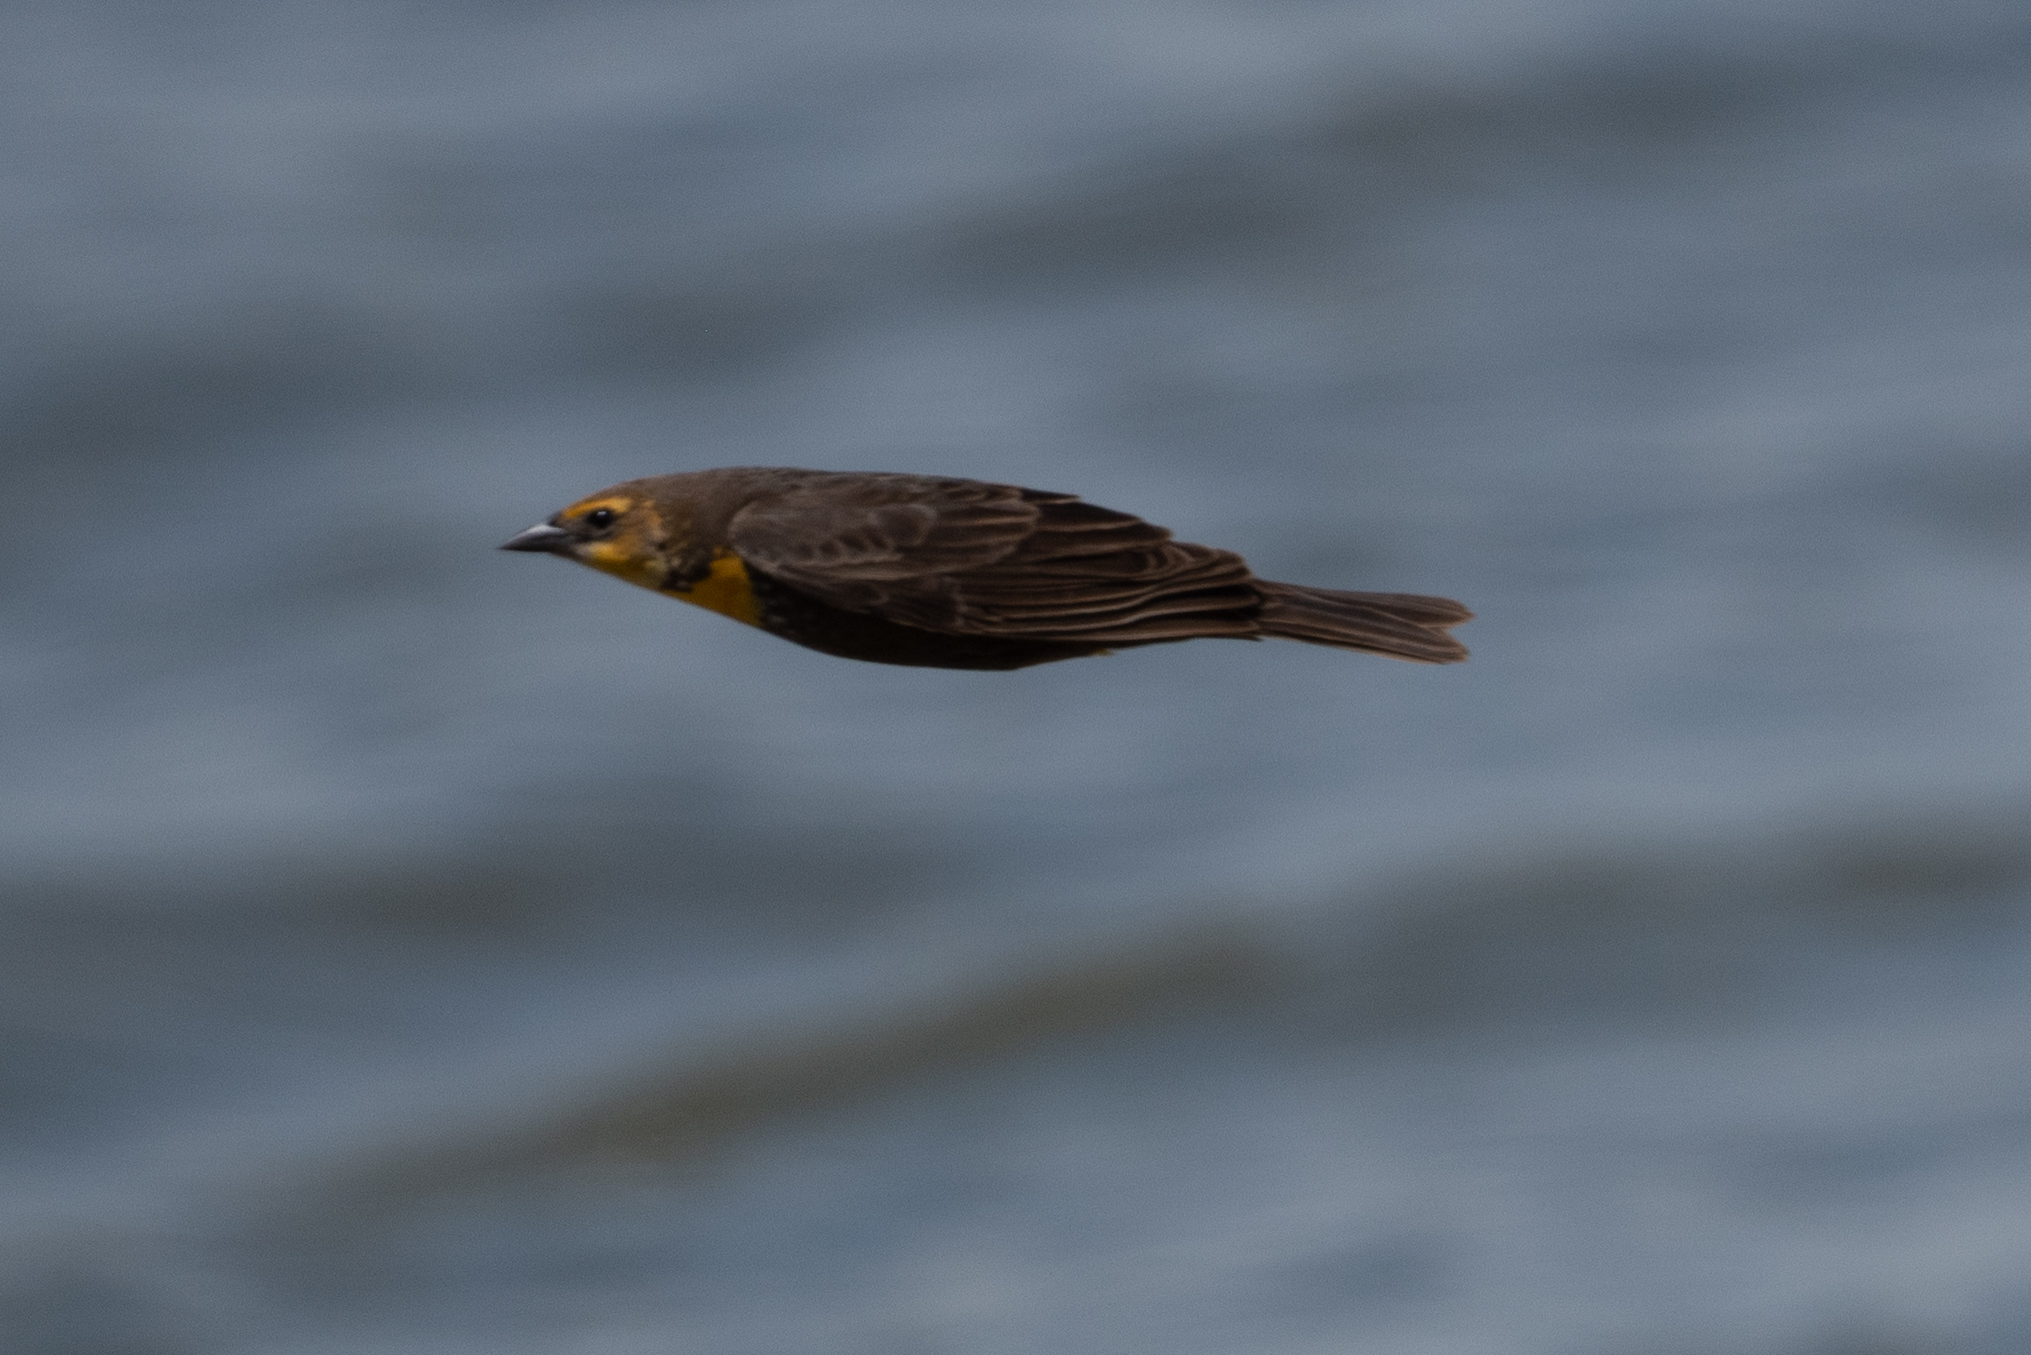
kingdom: Animalia
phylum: Chordata
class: Aves
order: Passeriformes
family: Icteridae
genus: Xanthocephalus
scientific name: Xanthocephalus xanthocephalus
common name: Yellow-headed blackbird
